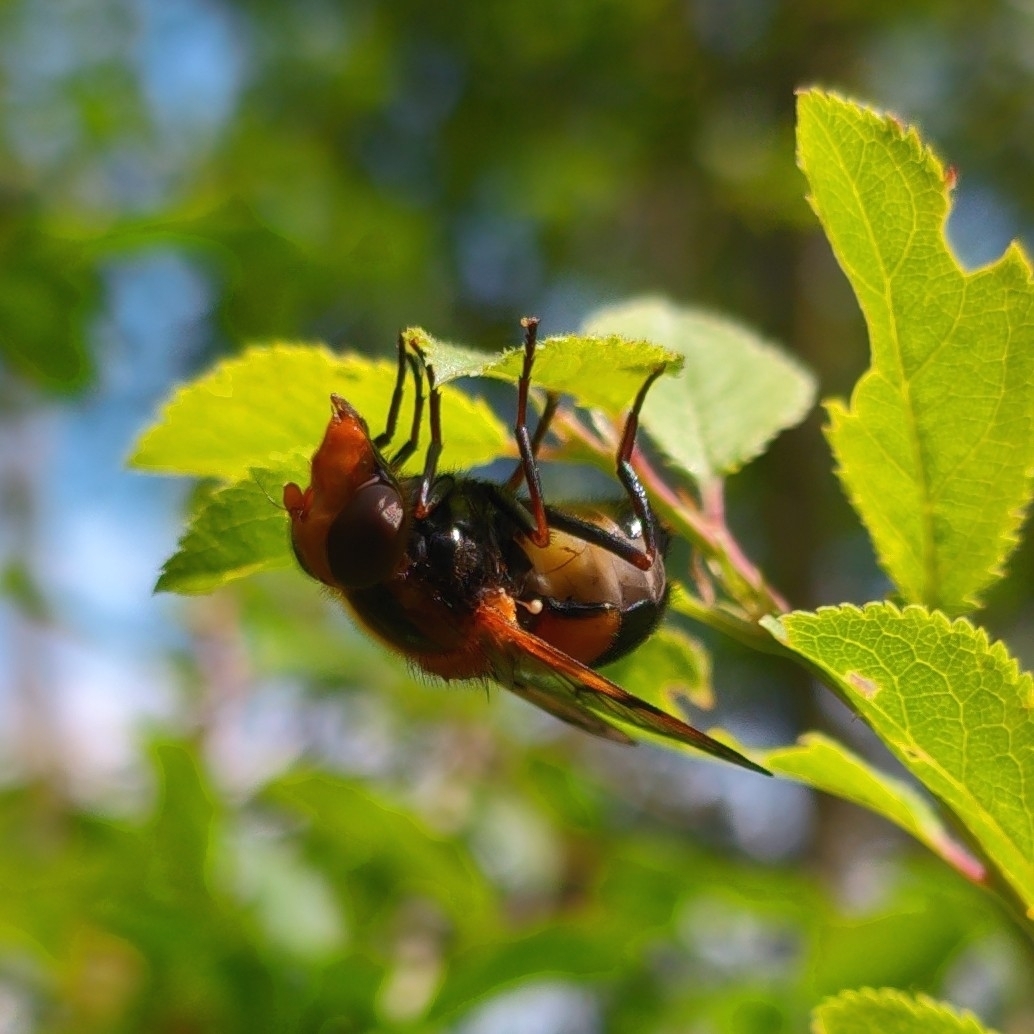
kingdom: Animalia
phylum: Arthropoda
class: Insecta
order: Diptera
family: Syrphidae
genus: Volucella
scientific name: Volucella inflata
